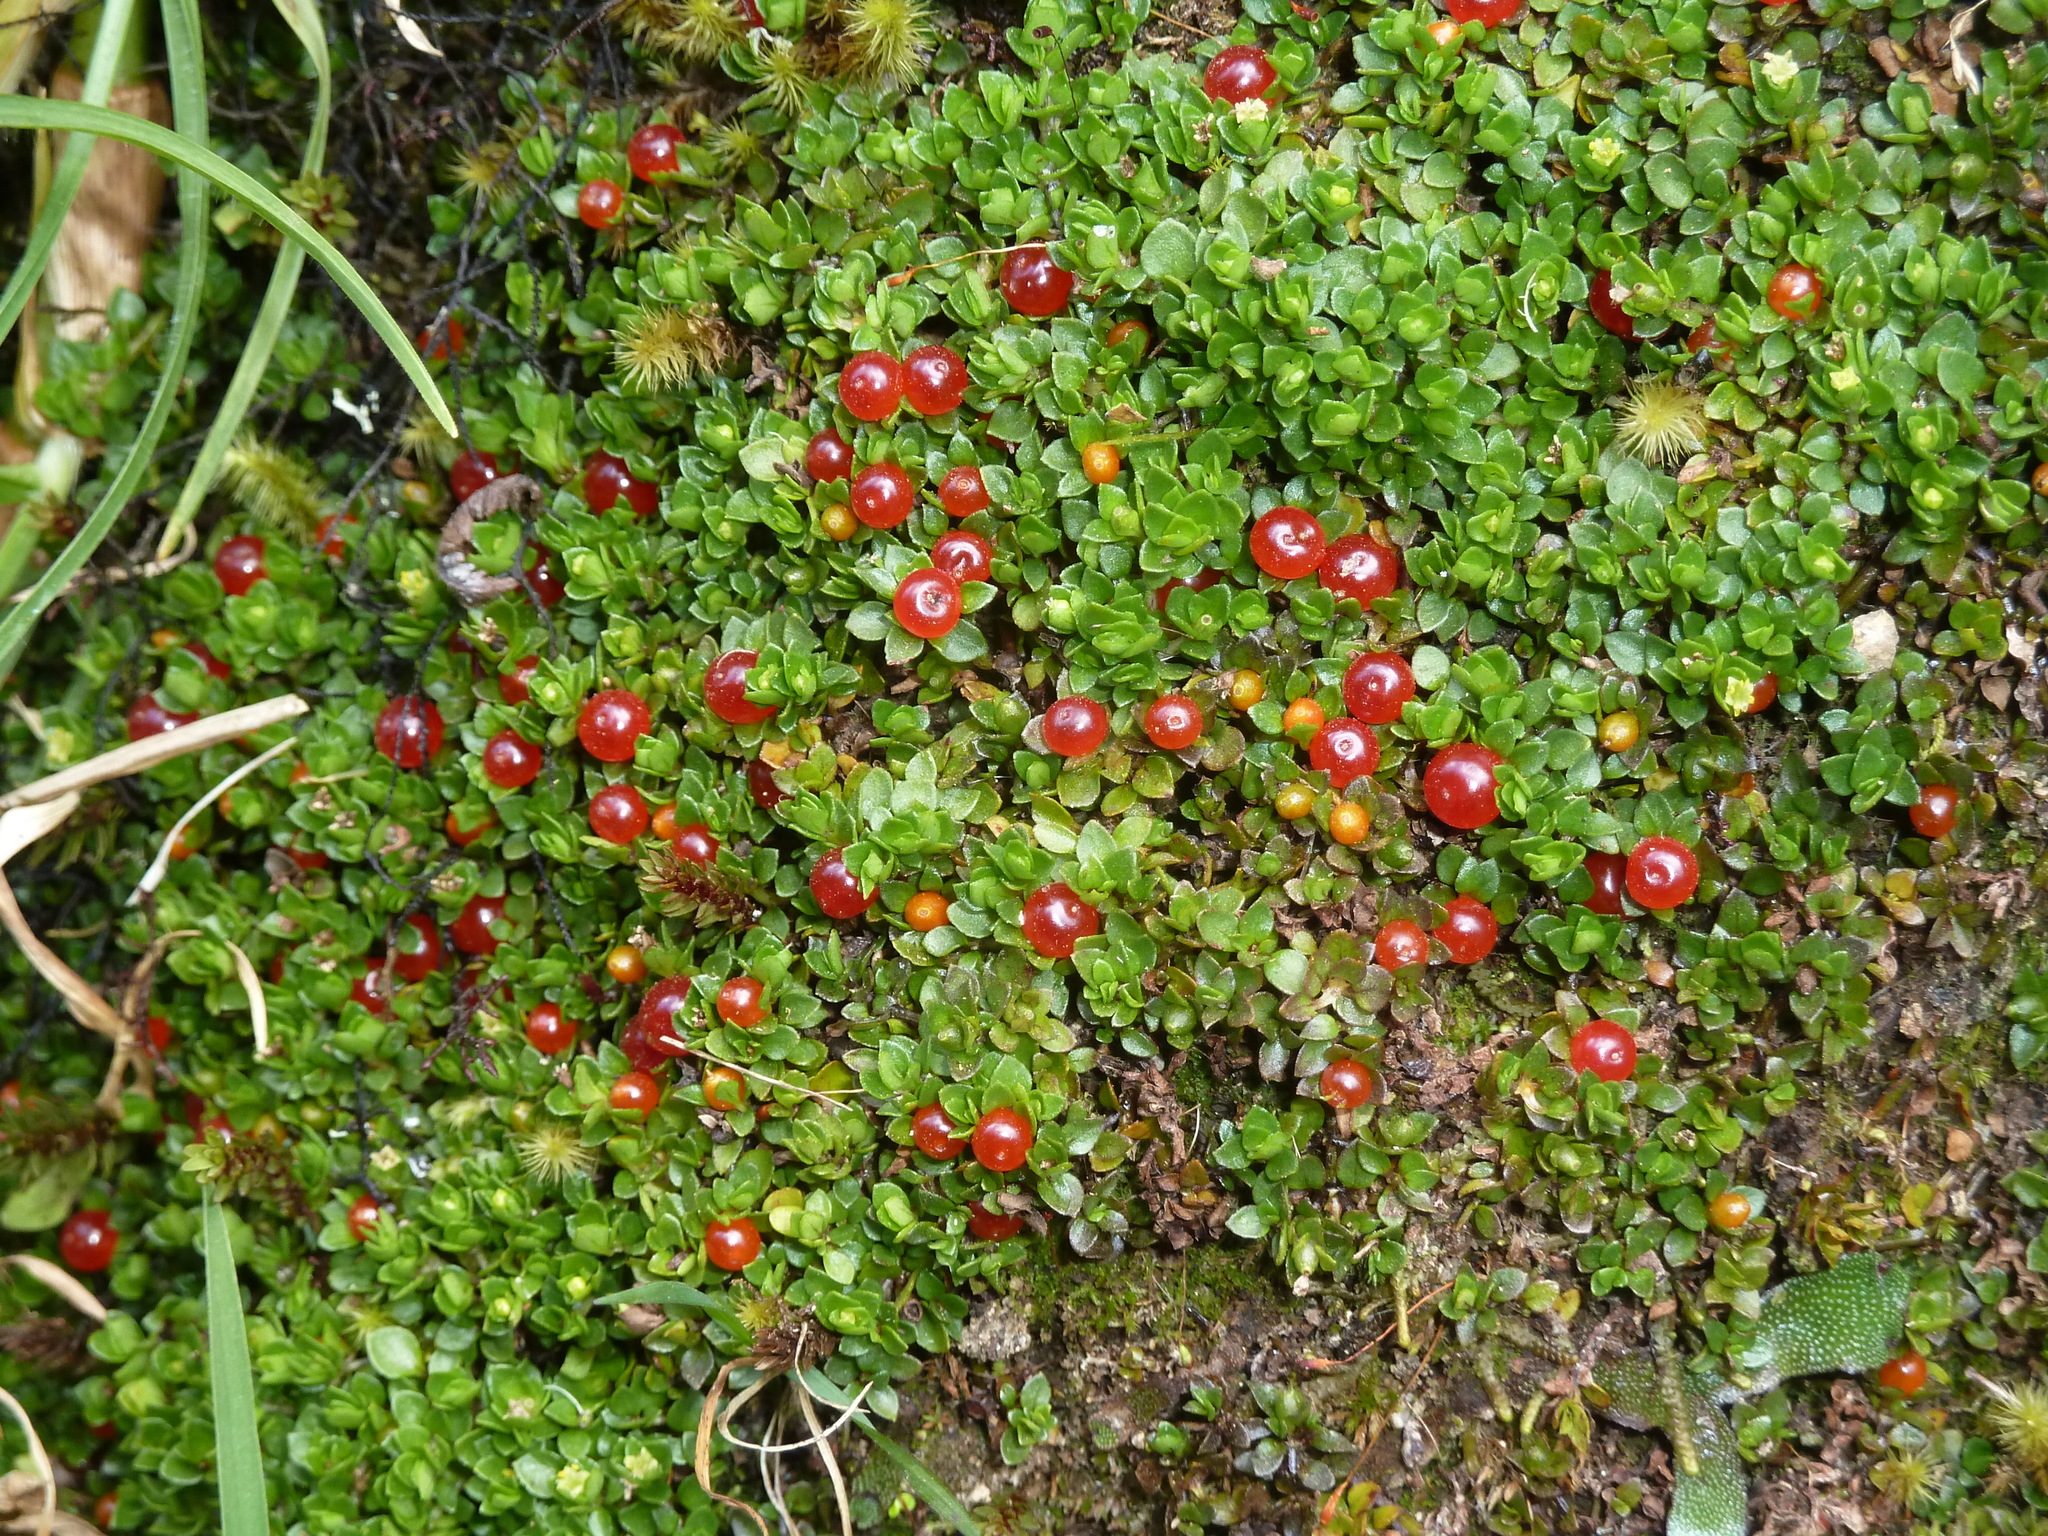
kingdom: Plantae
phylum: Tracheophyta
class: Magnoliopsida
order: Gentianales
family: Rubiaceae
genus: Nertera
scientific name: Nertera granadensis
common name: Beadplant
